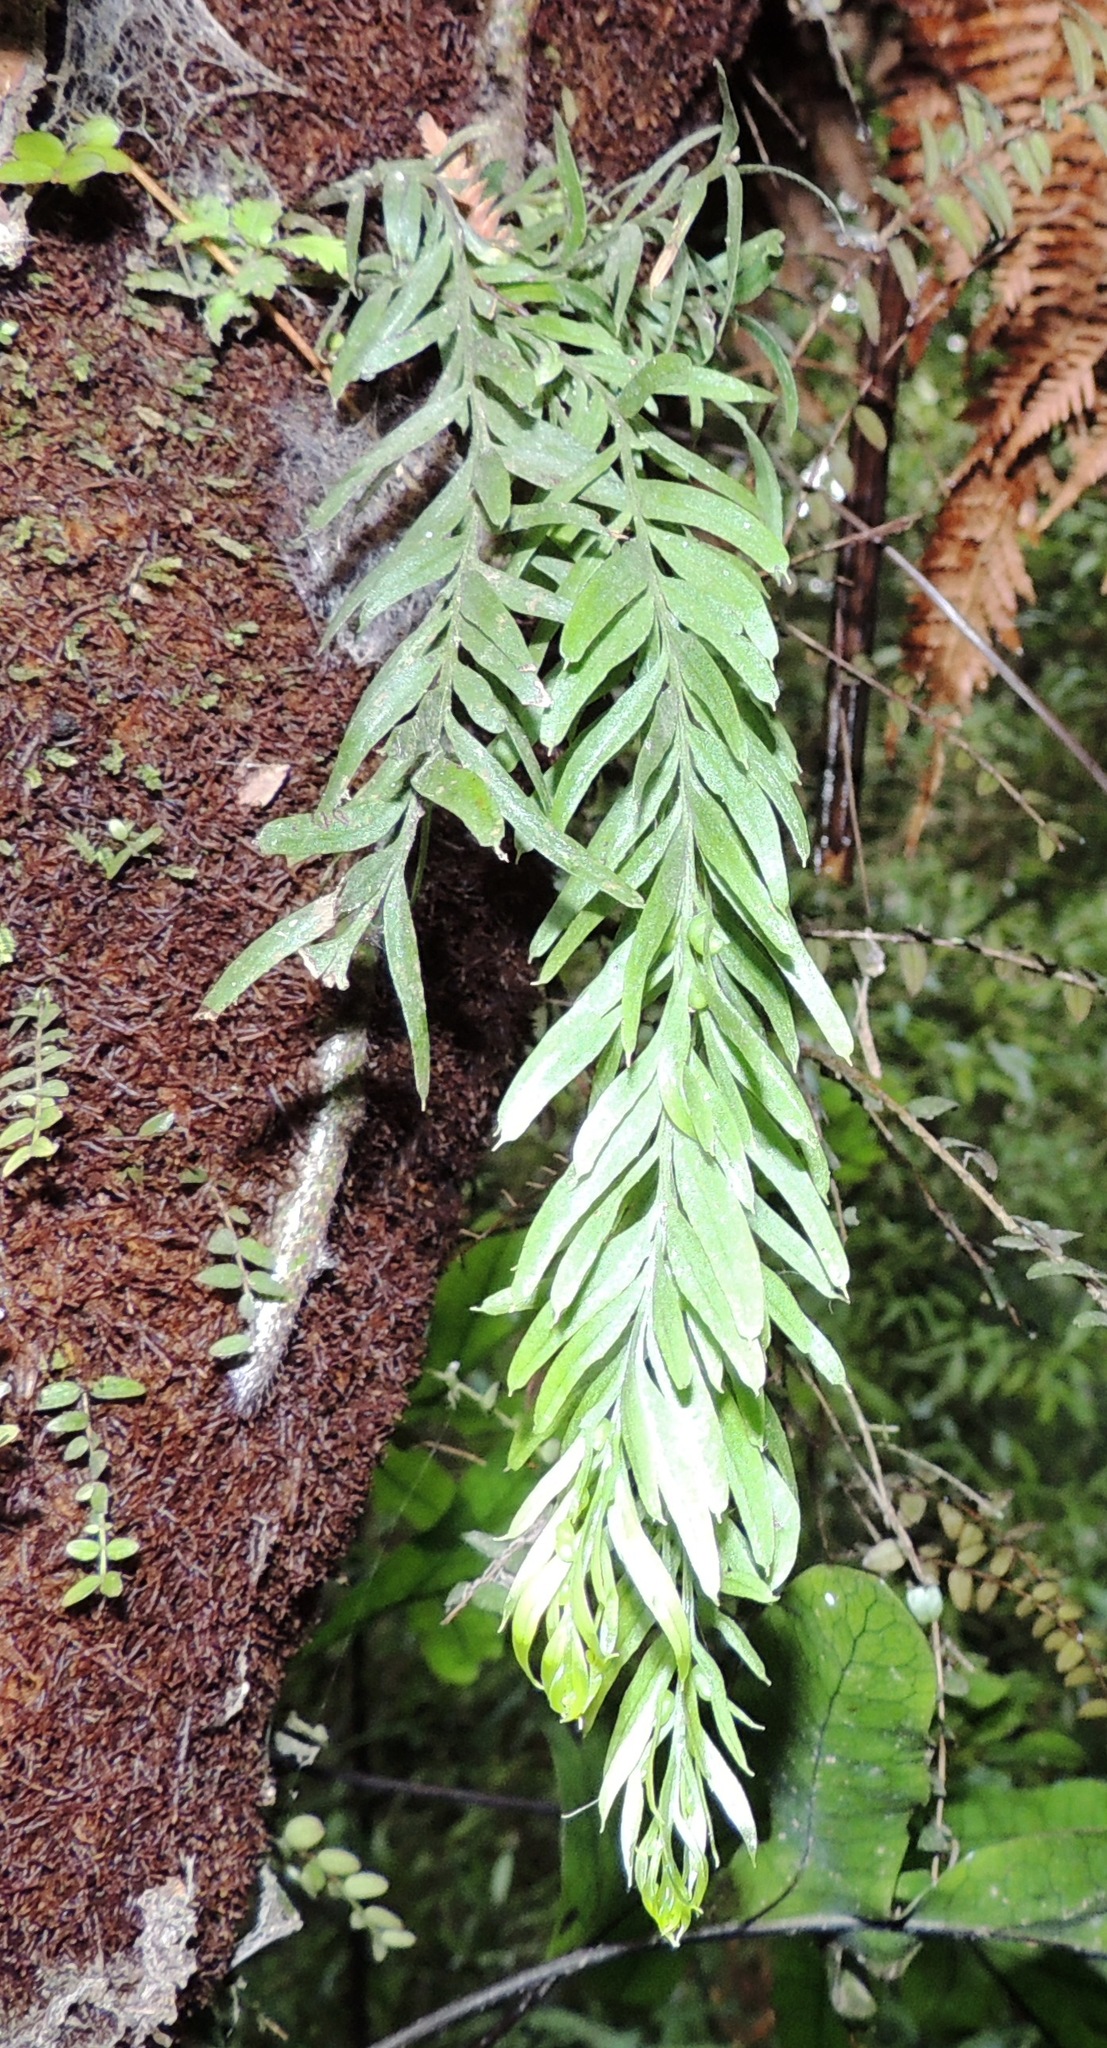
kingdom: Plantae
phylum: Tracheophyta
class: Polypodiopsida
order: Psilotales
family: Psilotaceae
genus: Tmesipteris
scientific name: Tmesipteris elongata
